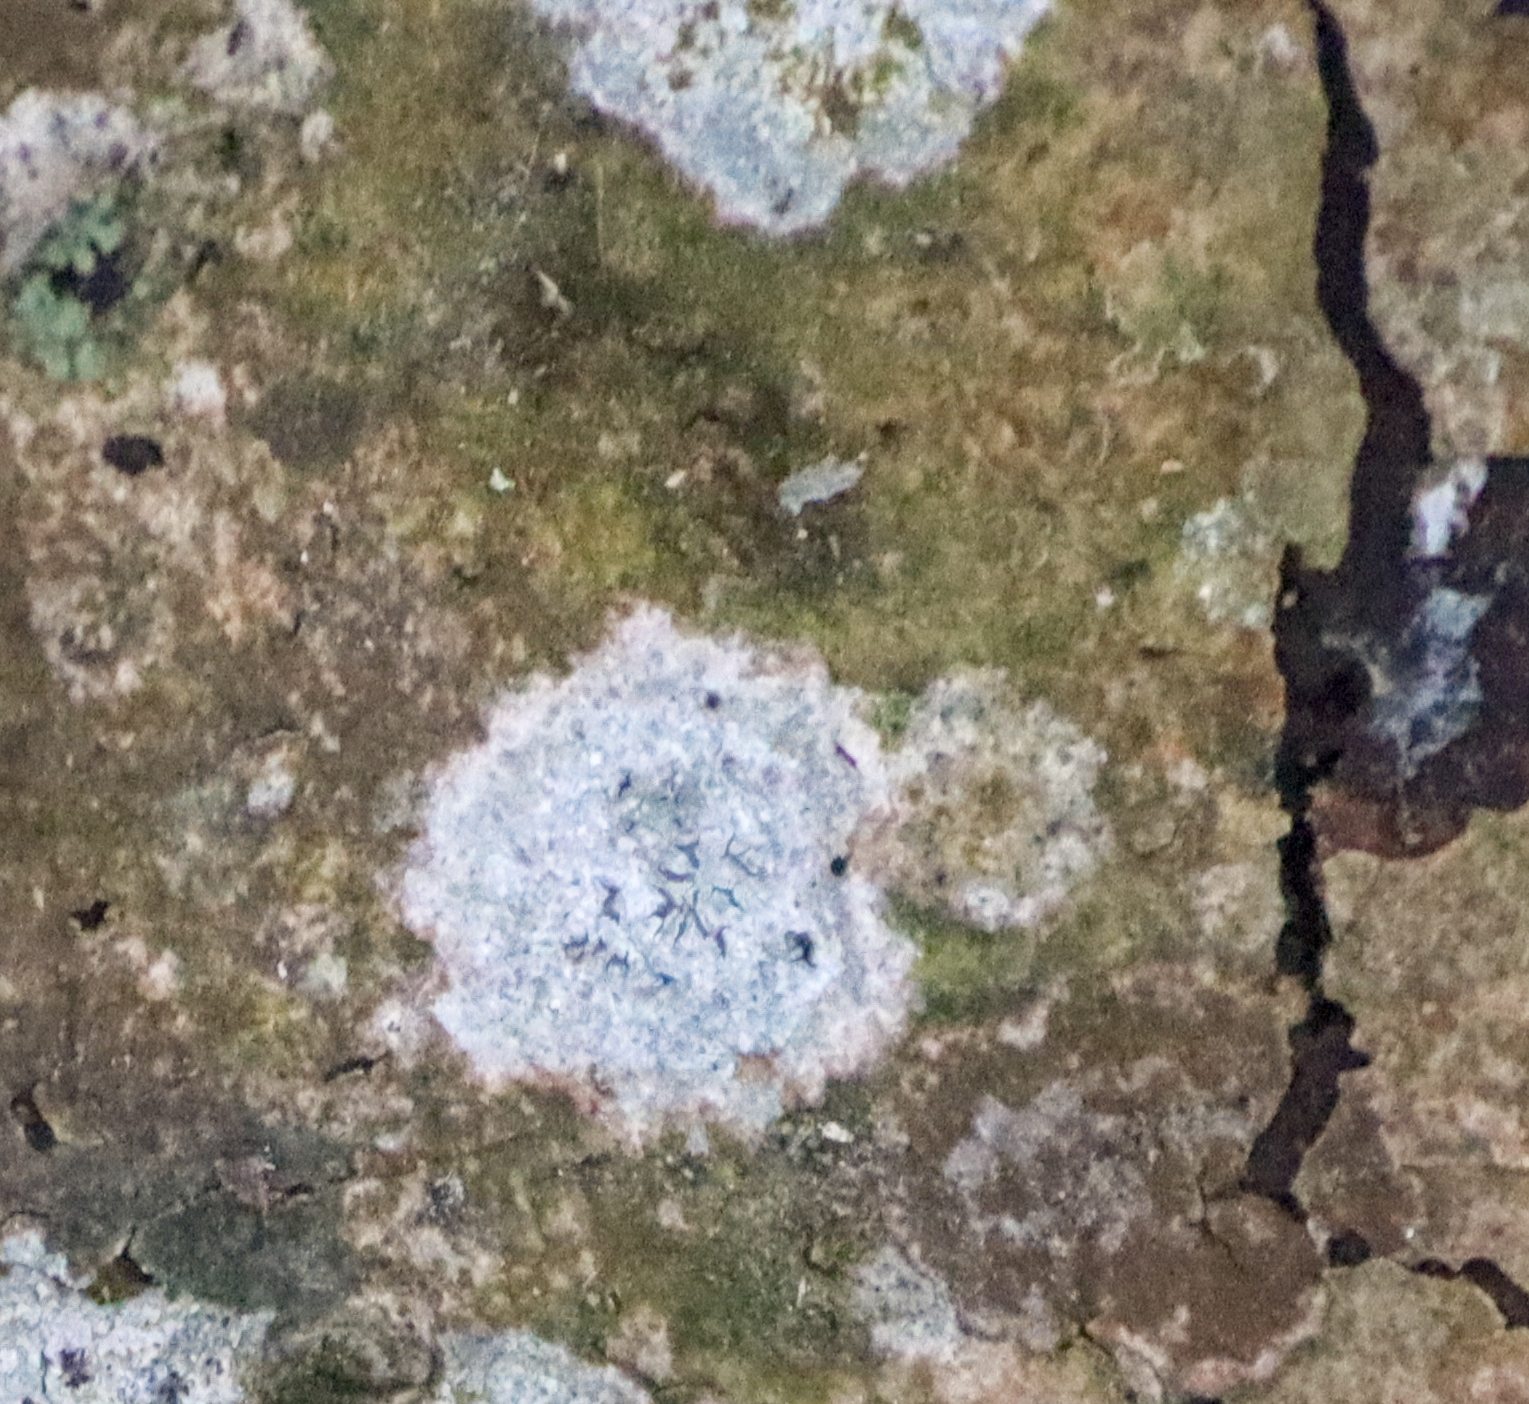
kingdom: Fungi
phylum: Ascomycota
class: Lecanoromycetes
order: Ostropales
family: Graphidaceae
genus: Graphis
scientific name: Graphis scripta
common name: Script lichen
